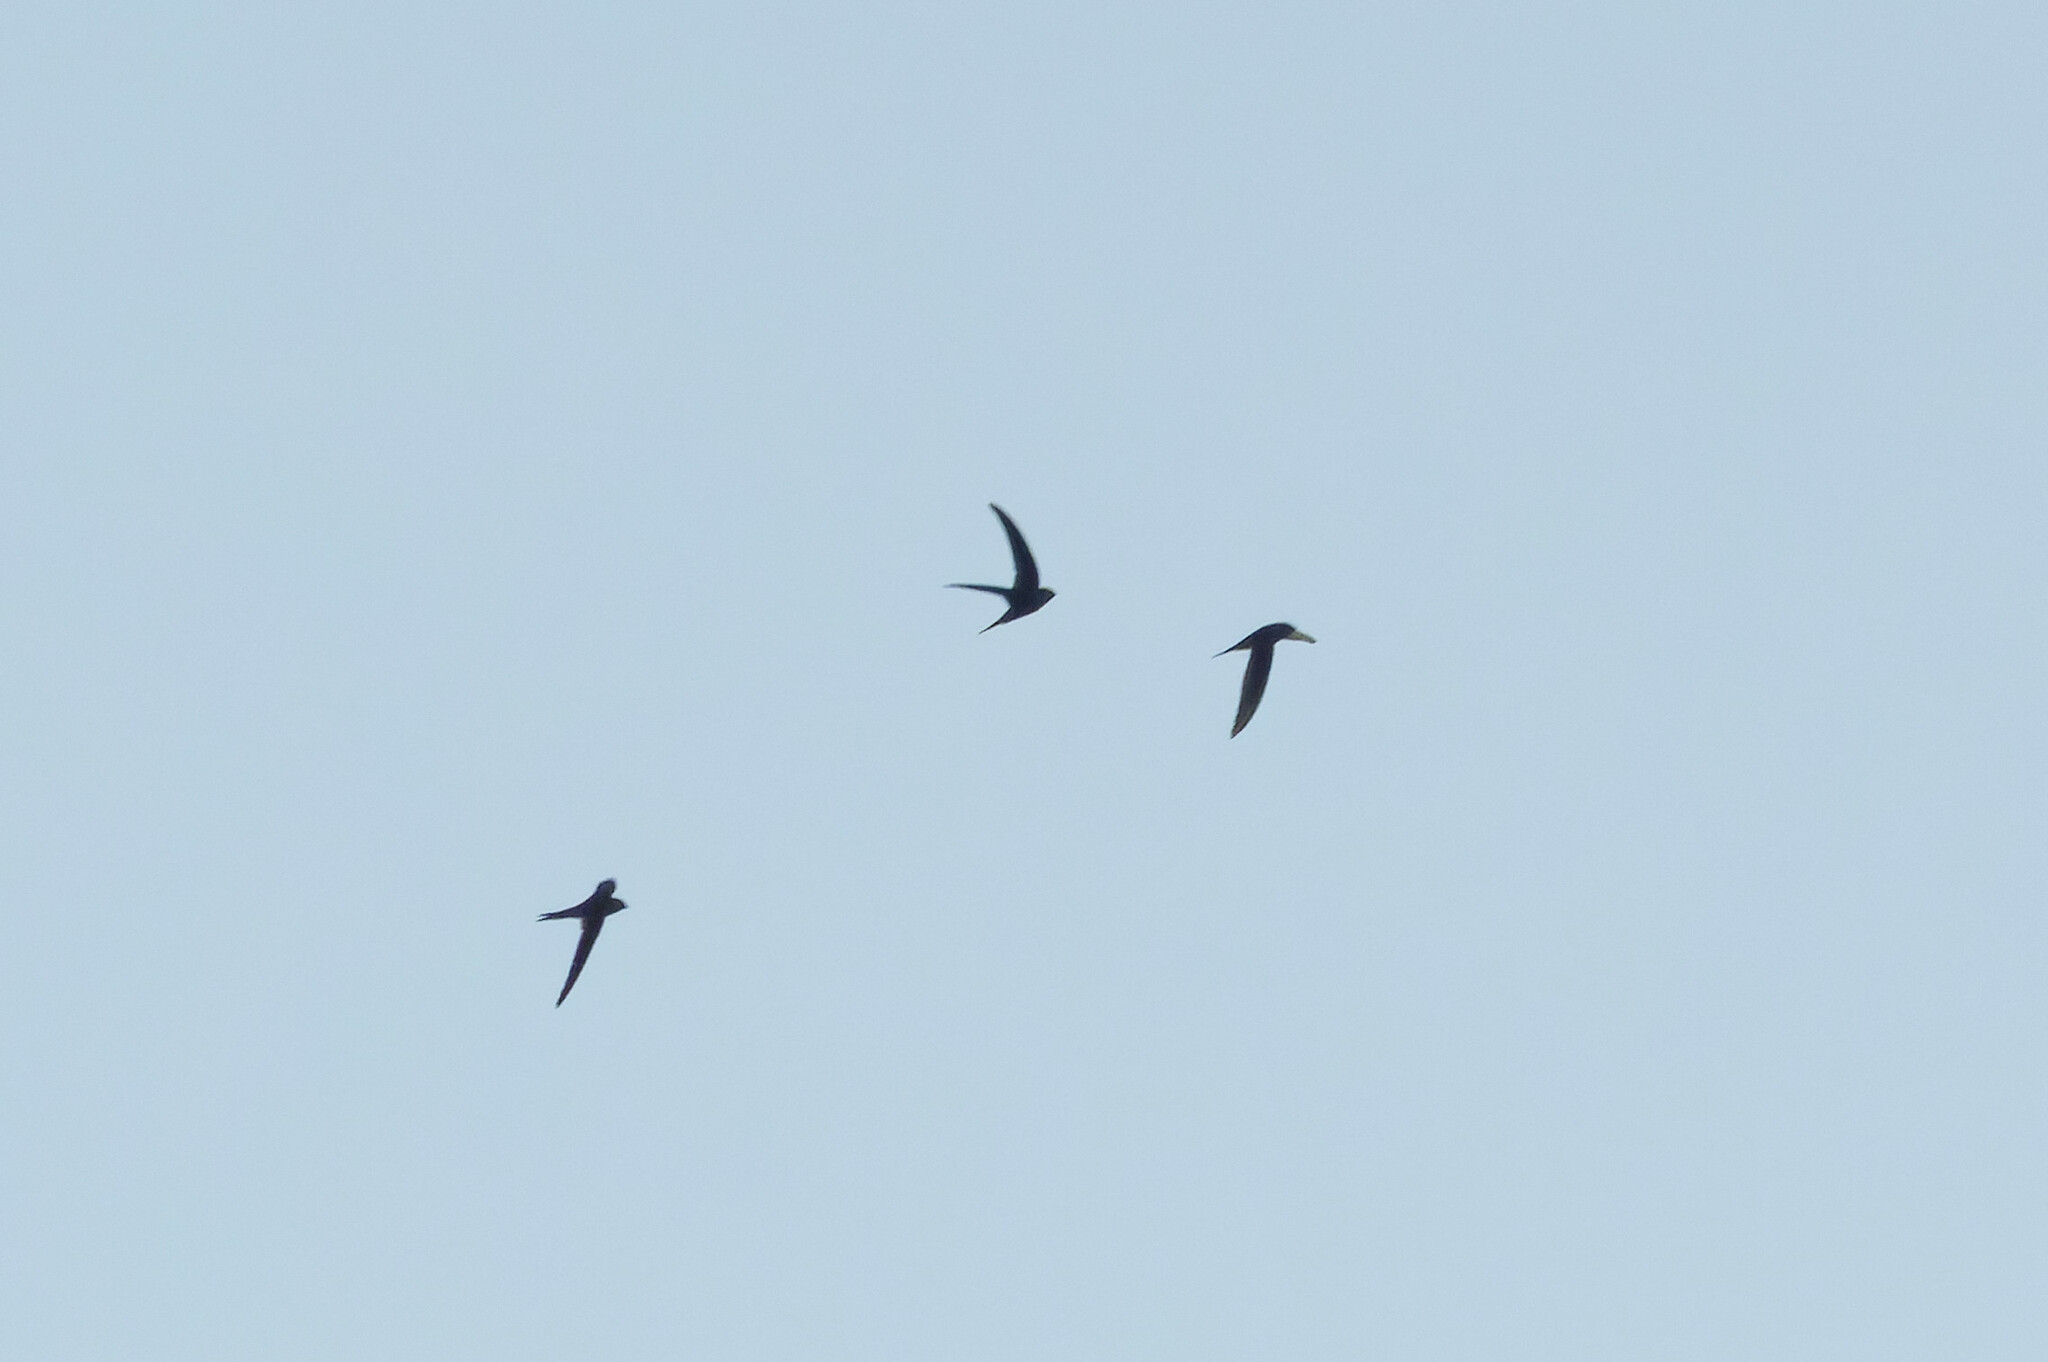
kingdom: Animalia
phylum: Chordata
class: Aves
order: Apodiformes
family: Apodidae
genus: Cypsiurus
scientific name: Cypsiurus balasiensis
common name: Asian palm swift
